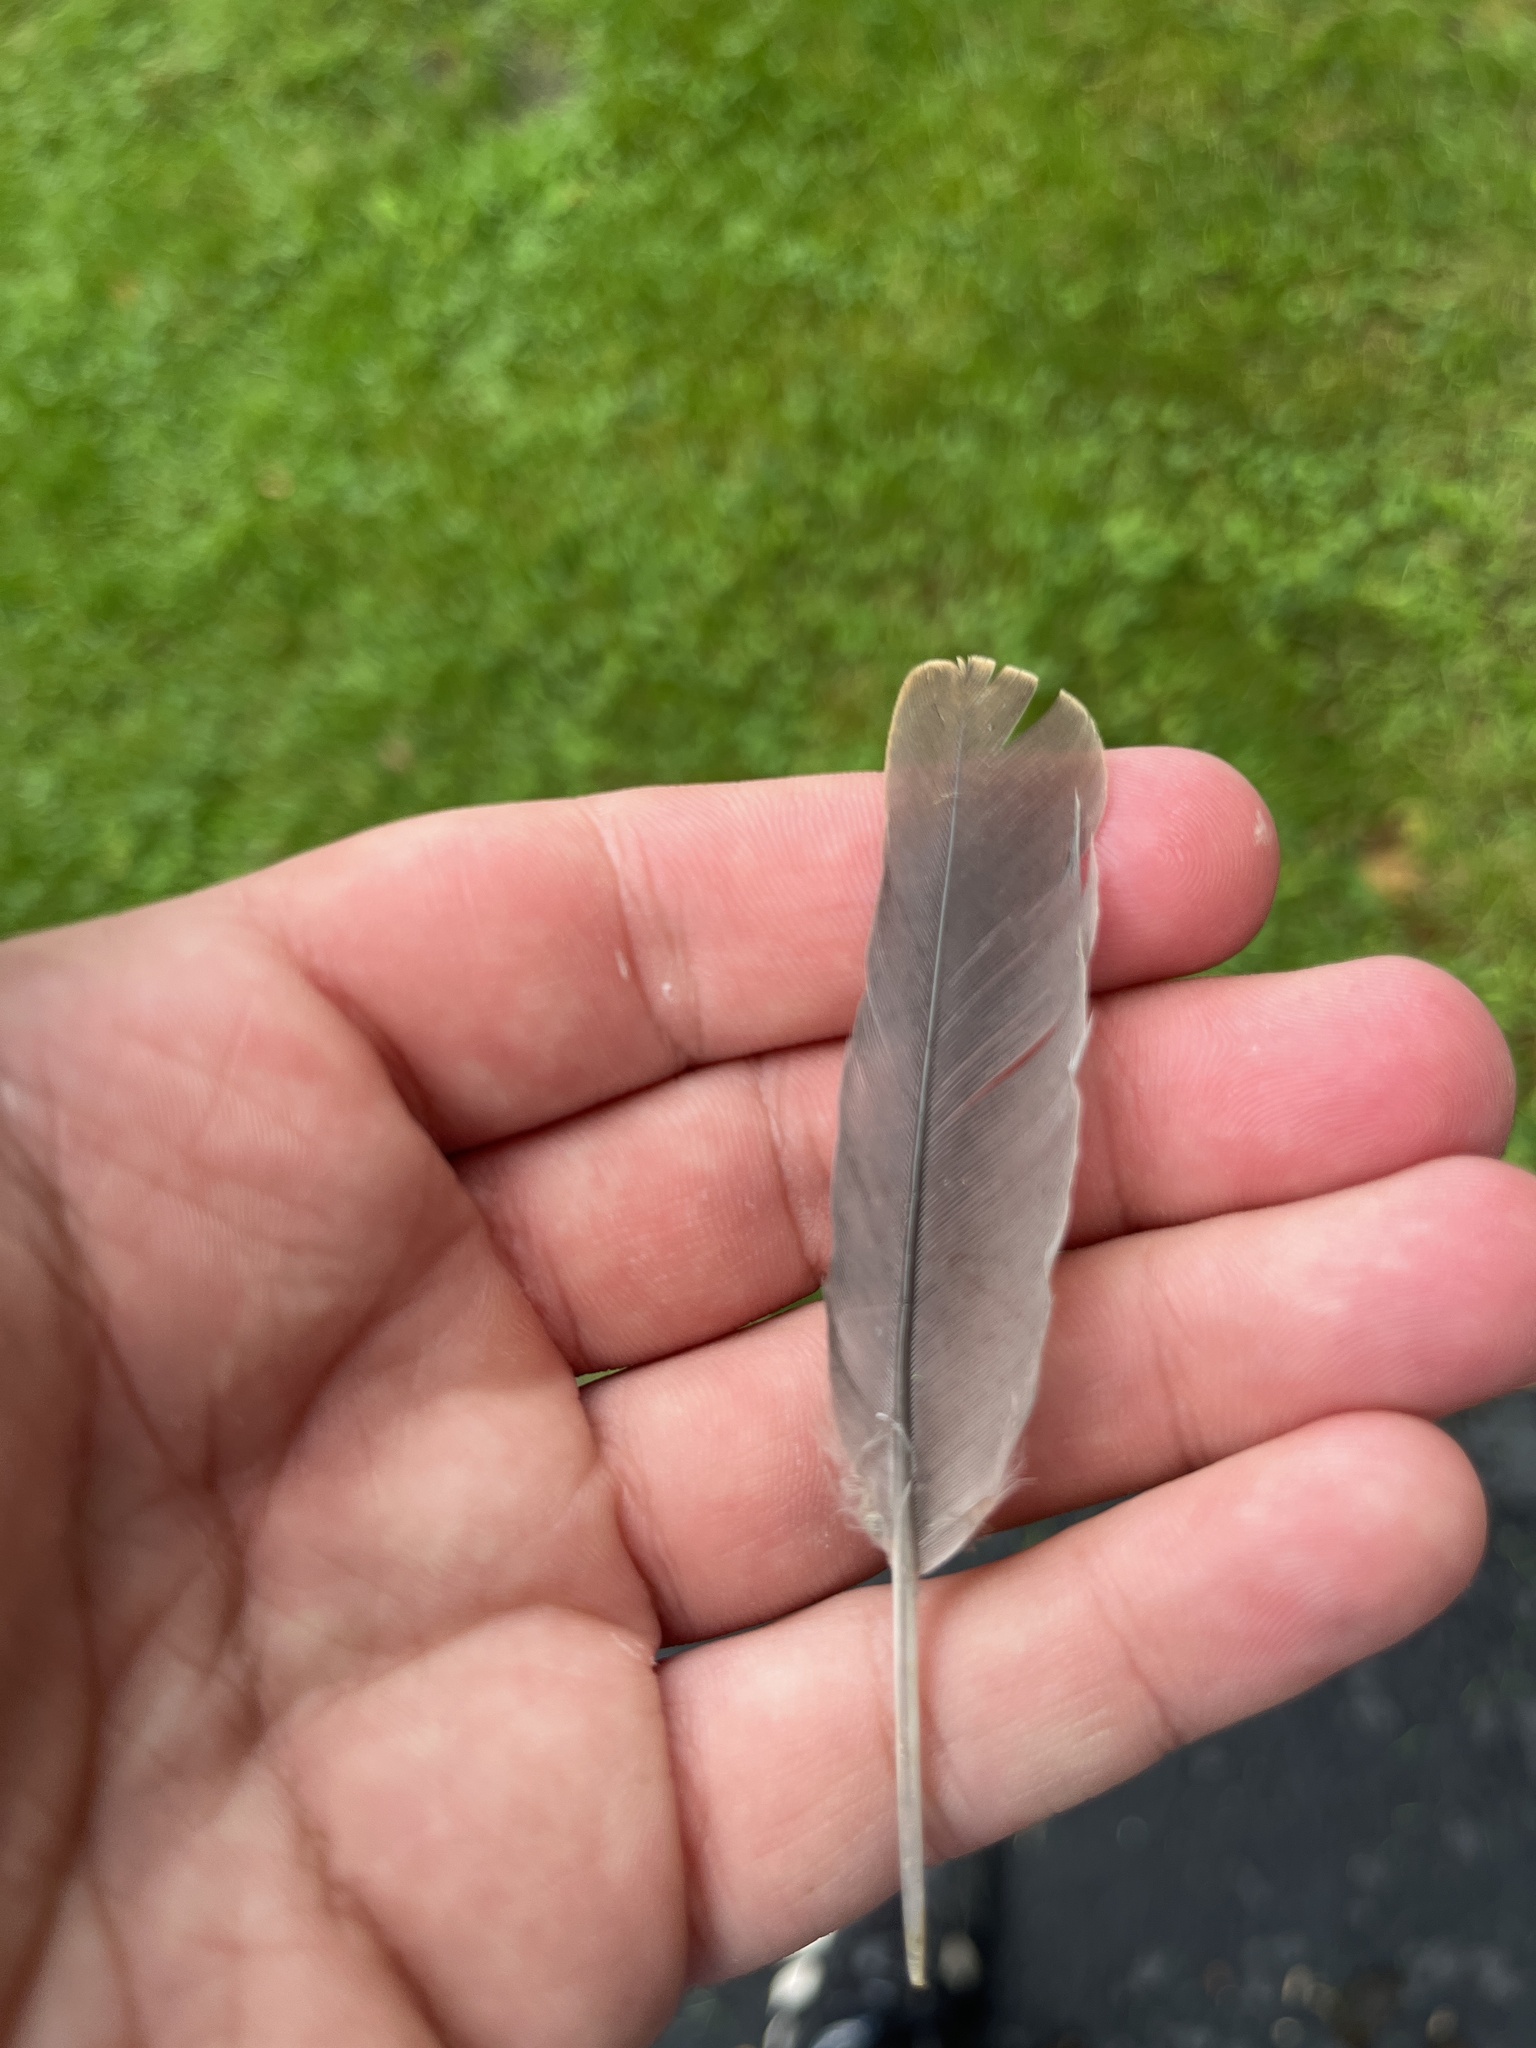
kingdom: Animalia
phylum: Chordata
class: Aves
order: Columbiformes
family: Columbidae
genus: Zenaida
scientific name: Zenaida macroura
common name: Mourning dove
